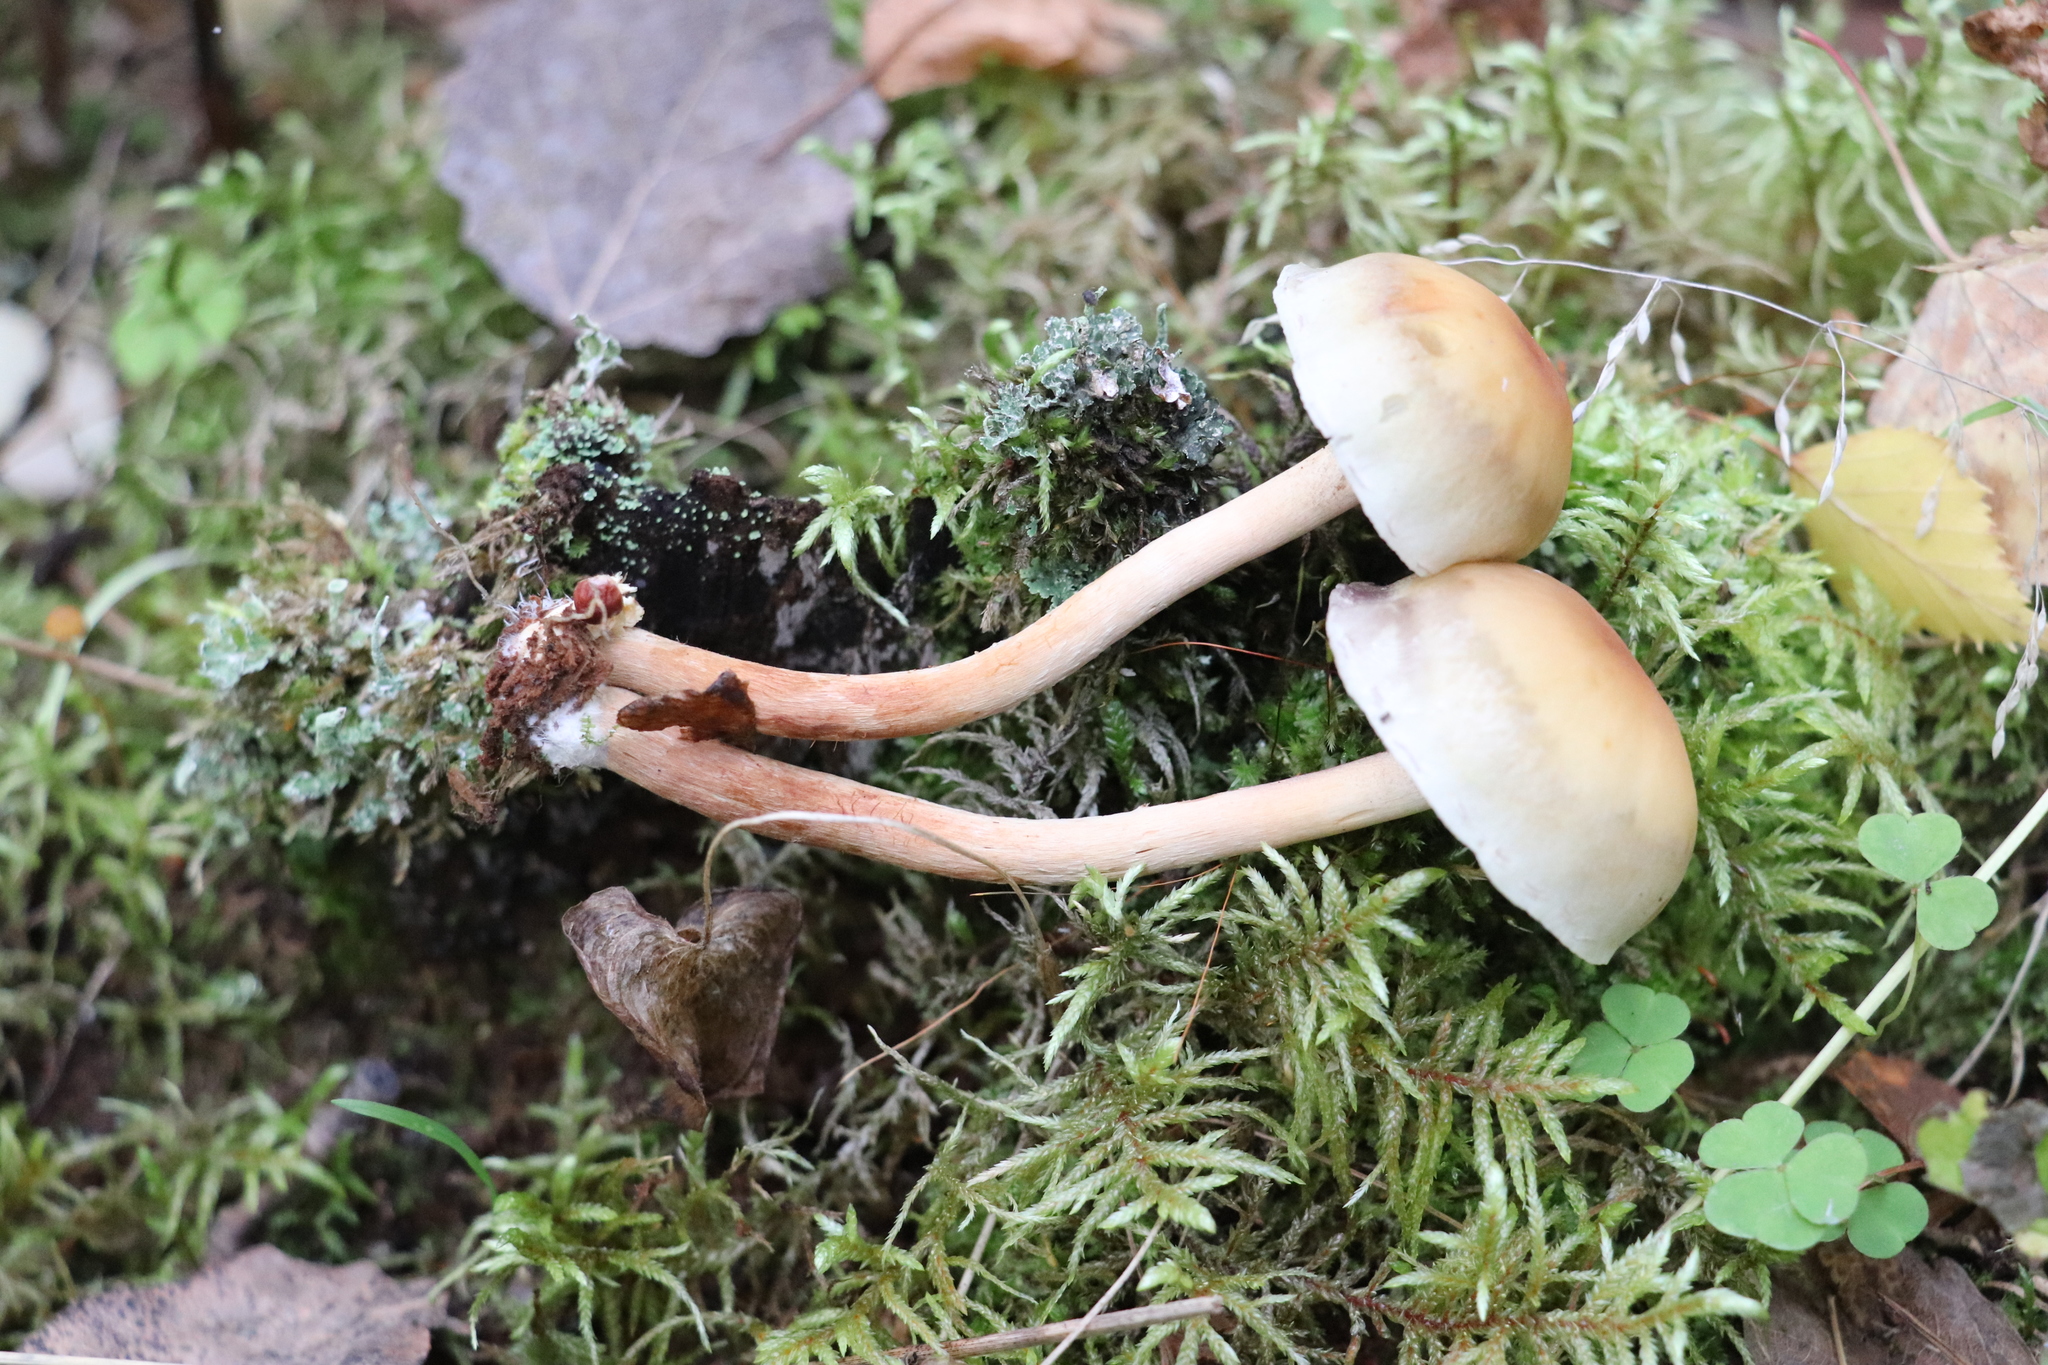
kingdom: Fungi
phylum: Basidiomycota
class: Agaricomycetes
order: Agaricales
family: Strophariaceae
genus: Hypholoma
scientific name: Hypholoma capnoides
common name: Conifer tuft
